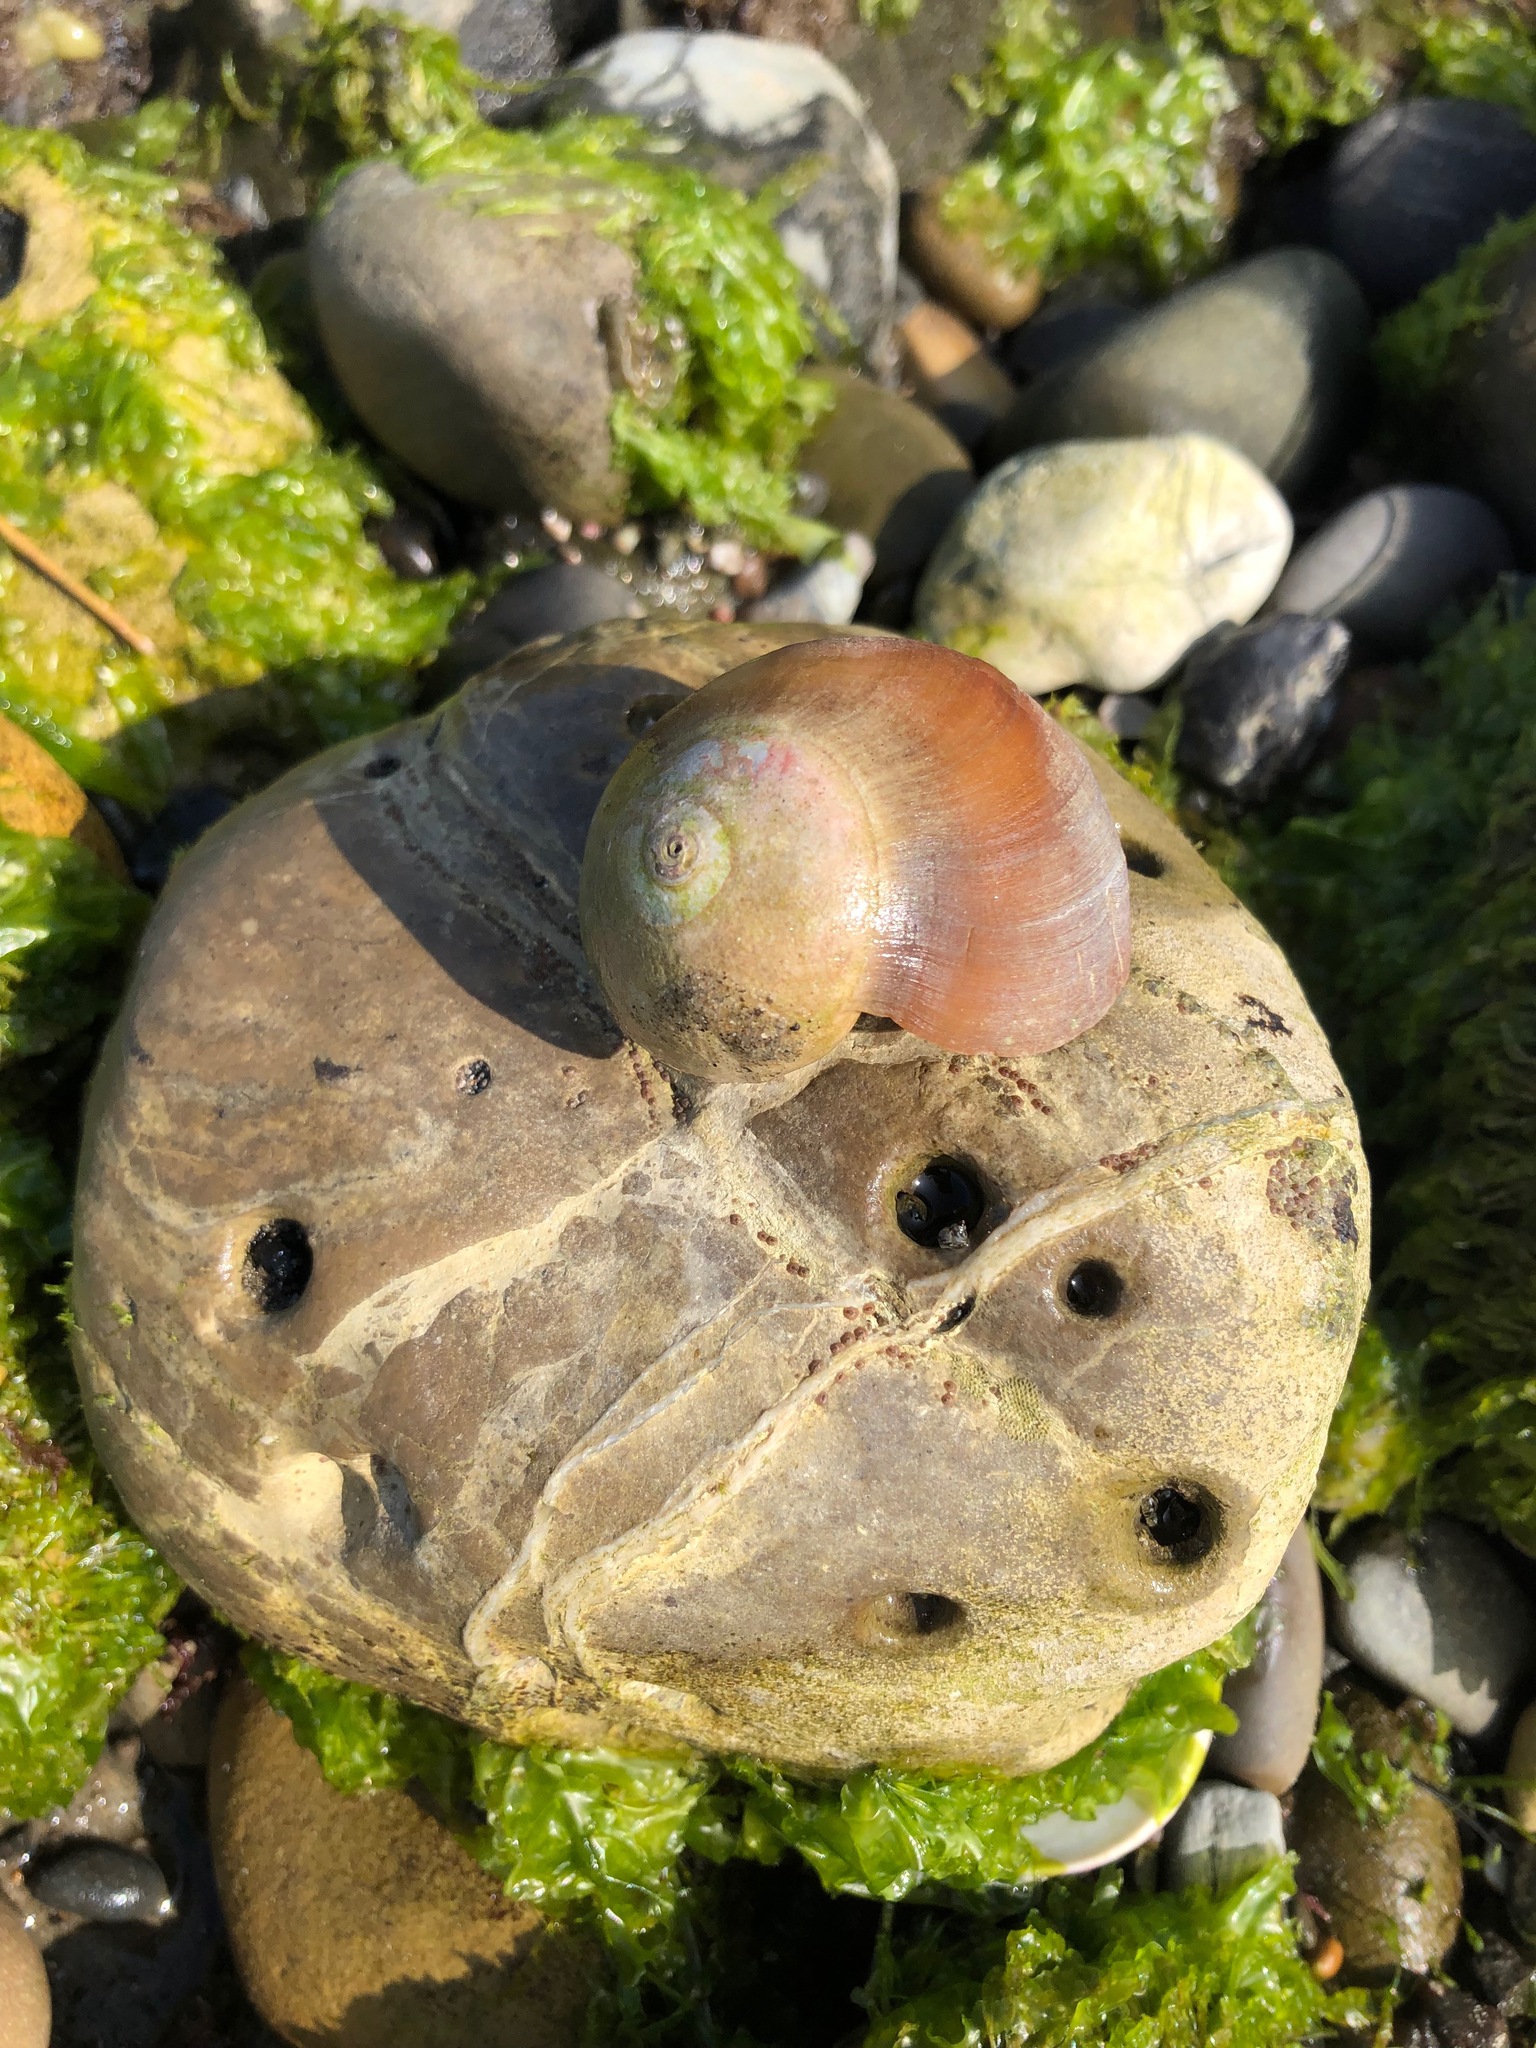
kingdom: Animalia
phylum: Mollusca
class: Gastropoda
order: Trochida
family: Tegulidae
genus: Norrisia
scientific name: Norrisia norrisii
